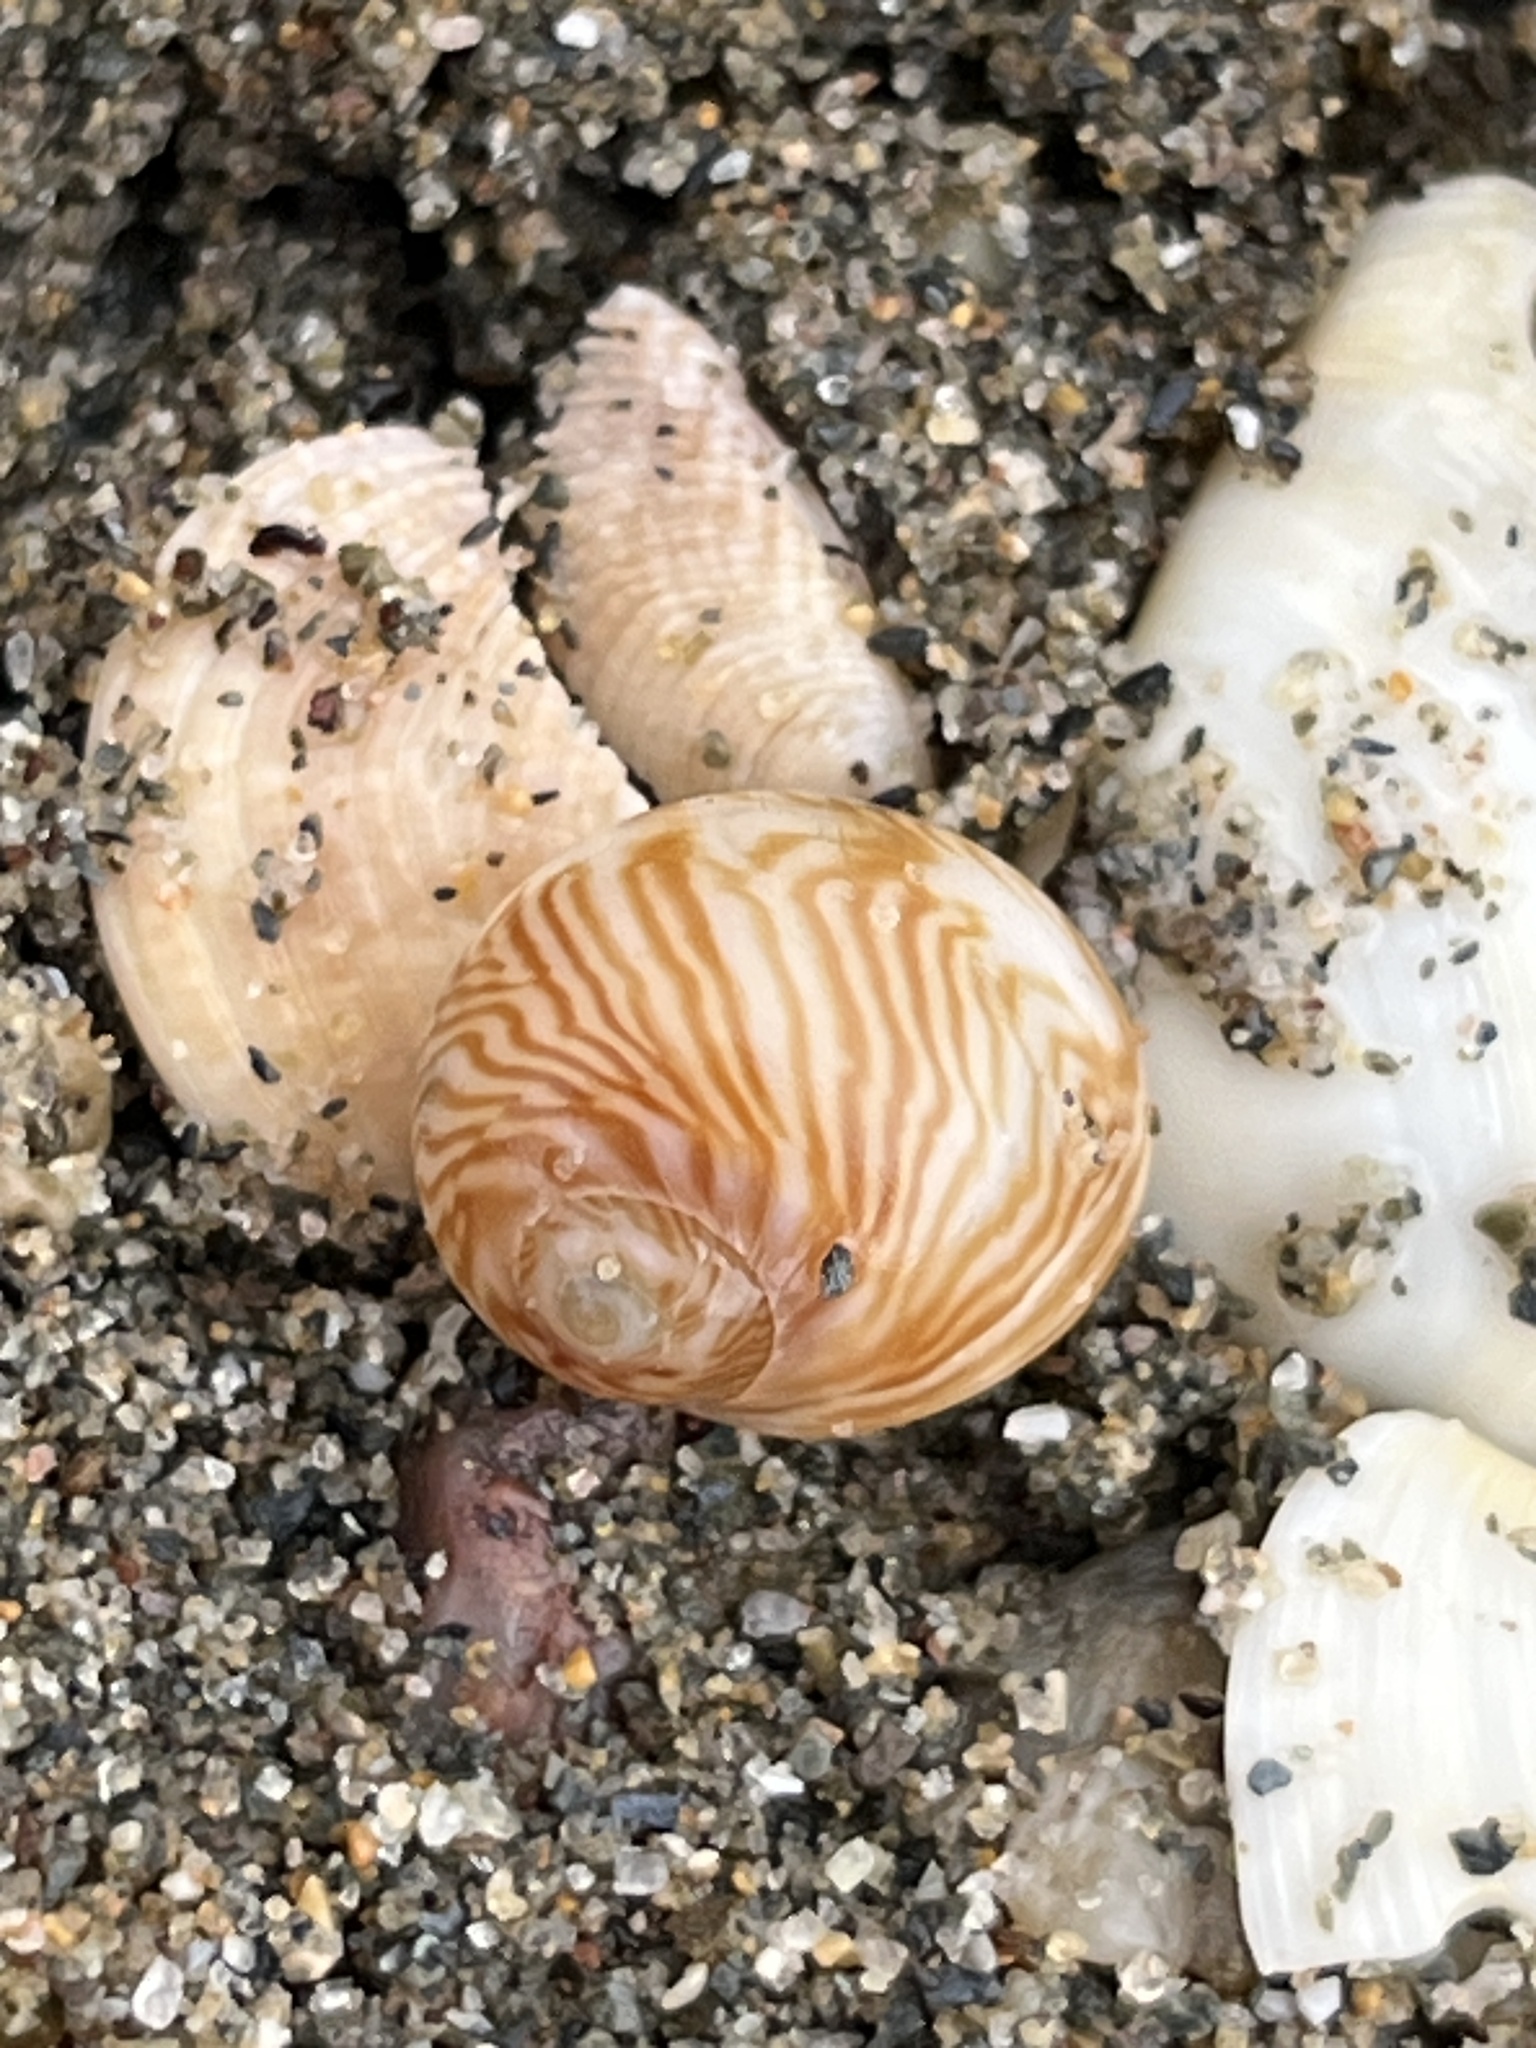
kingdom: Animalia
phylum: Mollusca
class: Gastropoda
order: Littorinimorpha
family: Naticidae
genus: Tectonatica
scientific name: Tectonatica sagraiana
